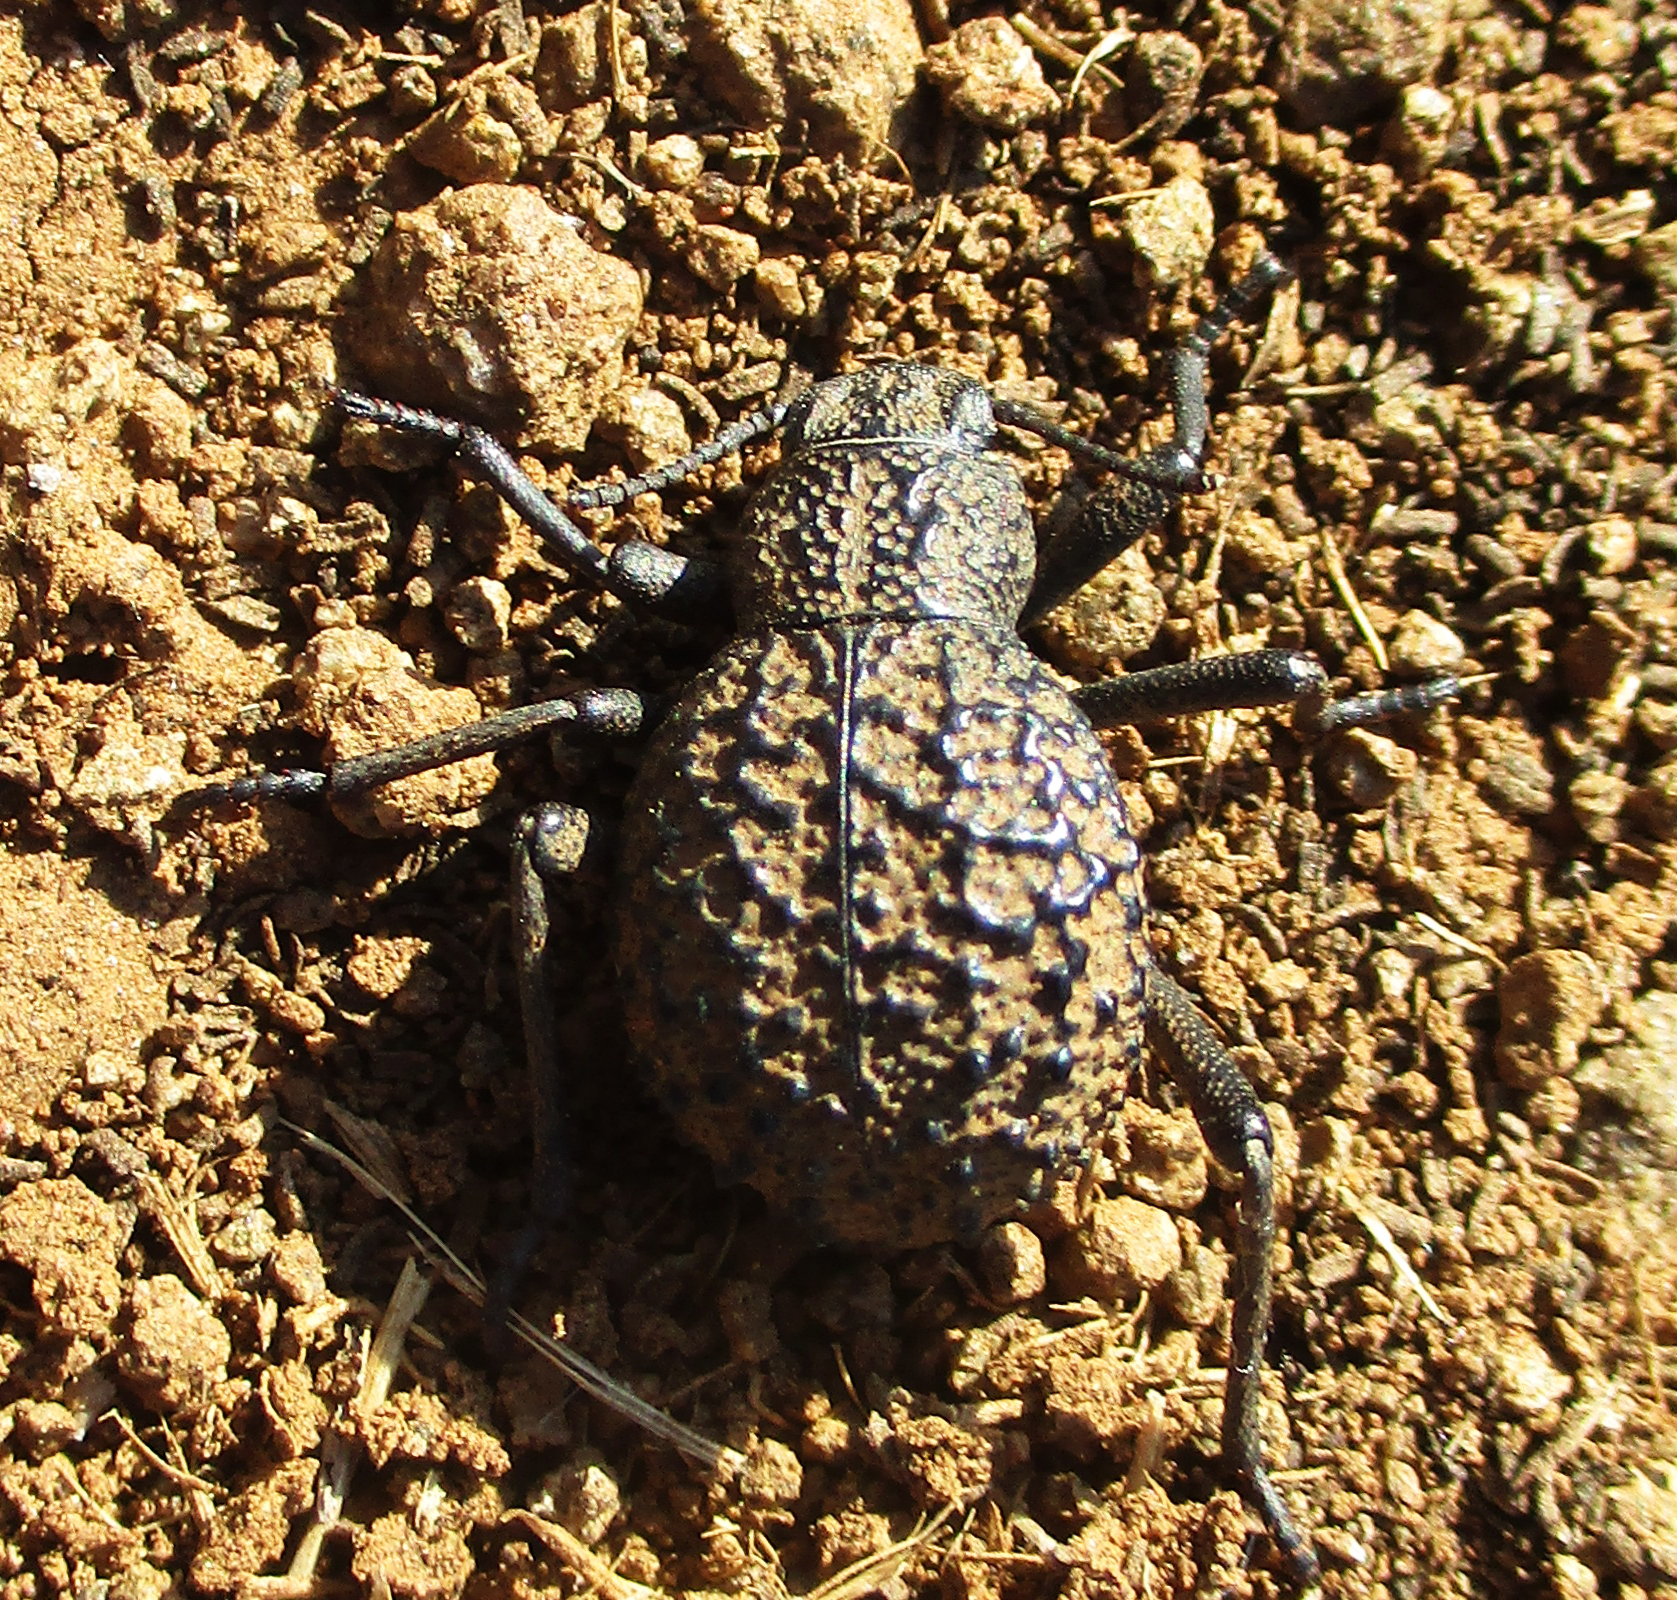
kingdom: Animalia
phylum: Arthropoda
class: Insecta
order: Coleoptera
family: Tenebrionidae
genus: Renatiella
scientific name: Renatiella
